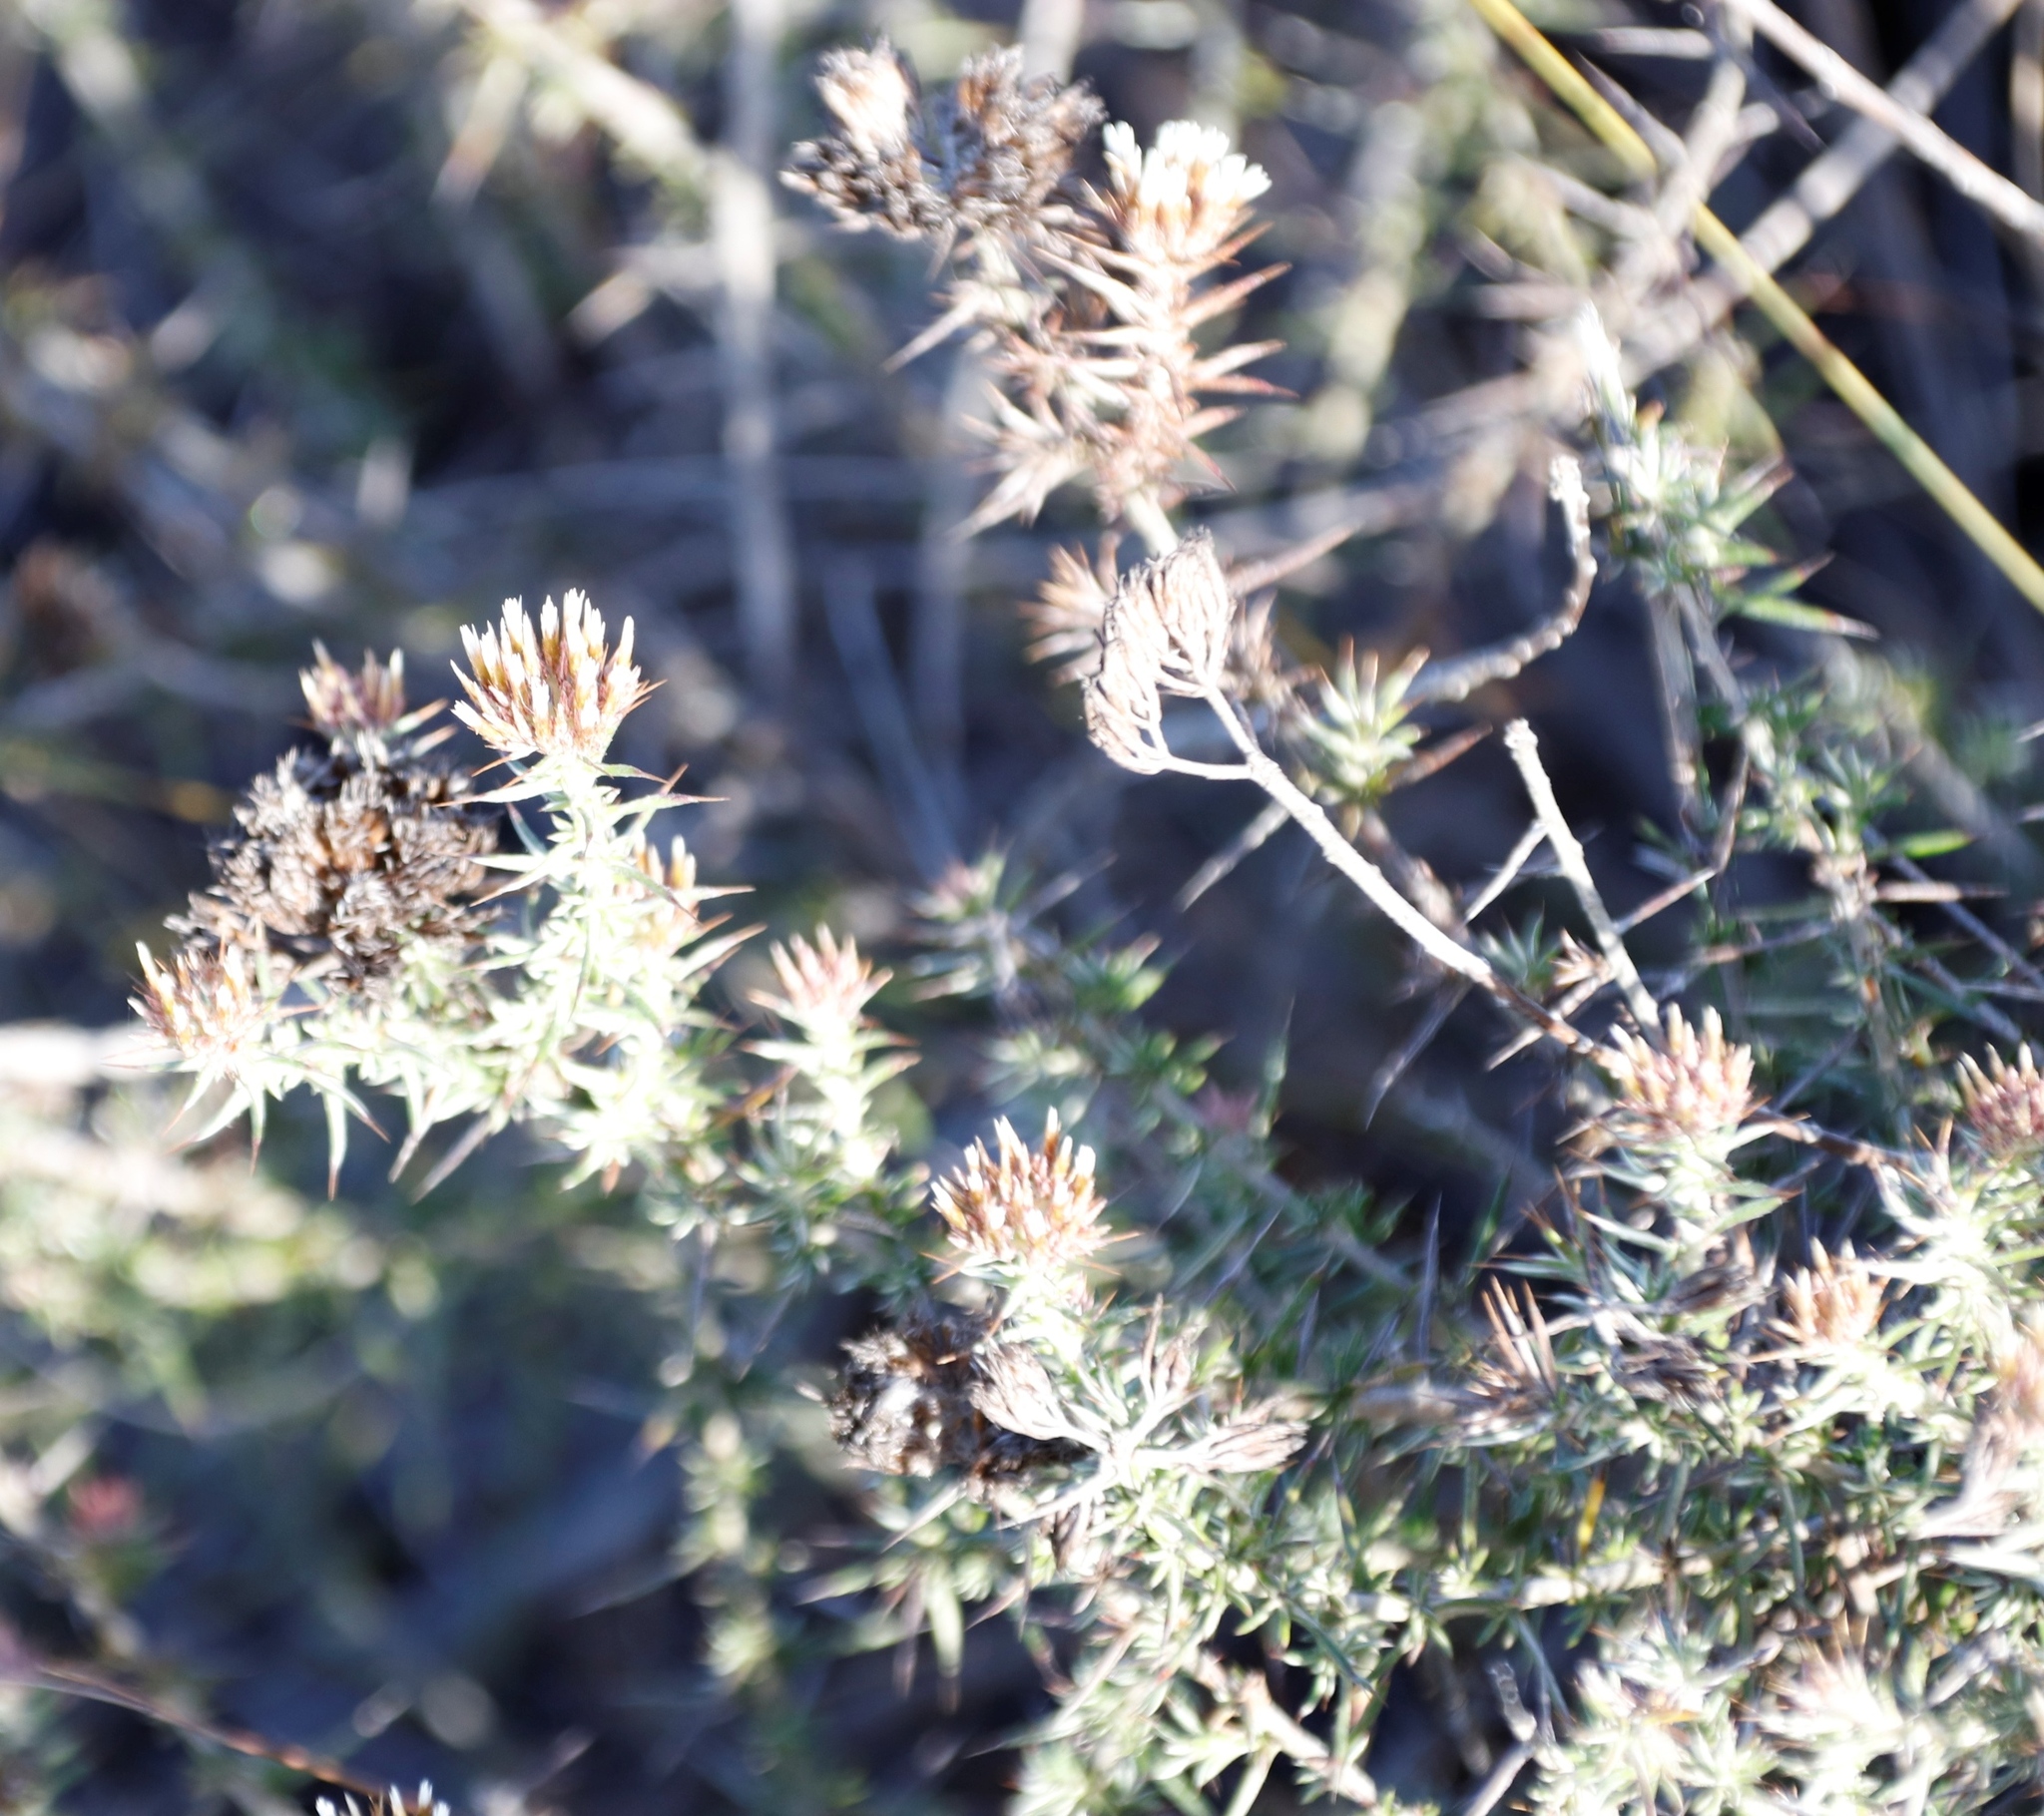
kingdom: Plantae
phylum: Tracheophyta
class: Magnoliopsida
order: Asterales
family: Asteraceae
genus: Metalasia
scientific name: Metalasia acuta
